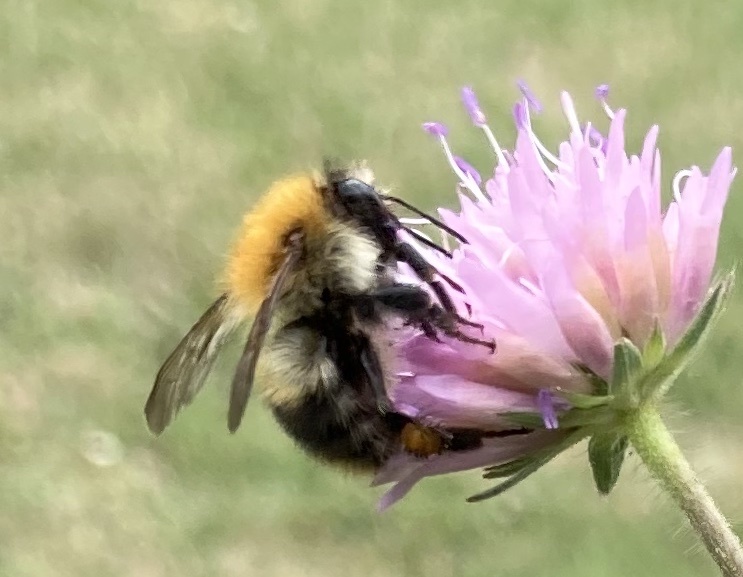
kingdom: Animalia
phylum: Arthropoda
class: Insecta
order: Hymenoptera
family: Apidae
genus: Bombus
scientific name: Bombus pascuorum
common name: Common carder bee
